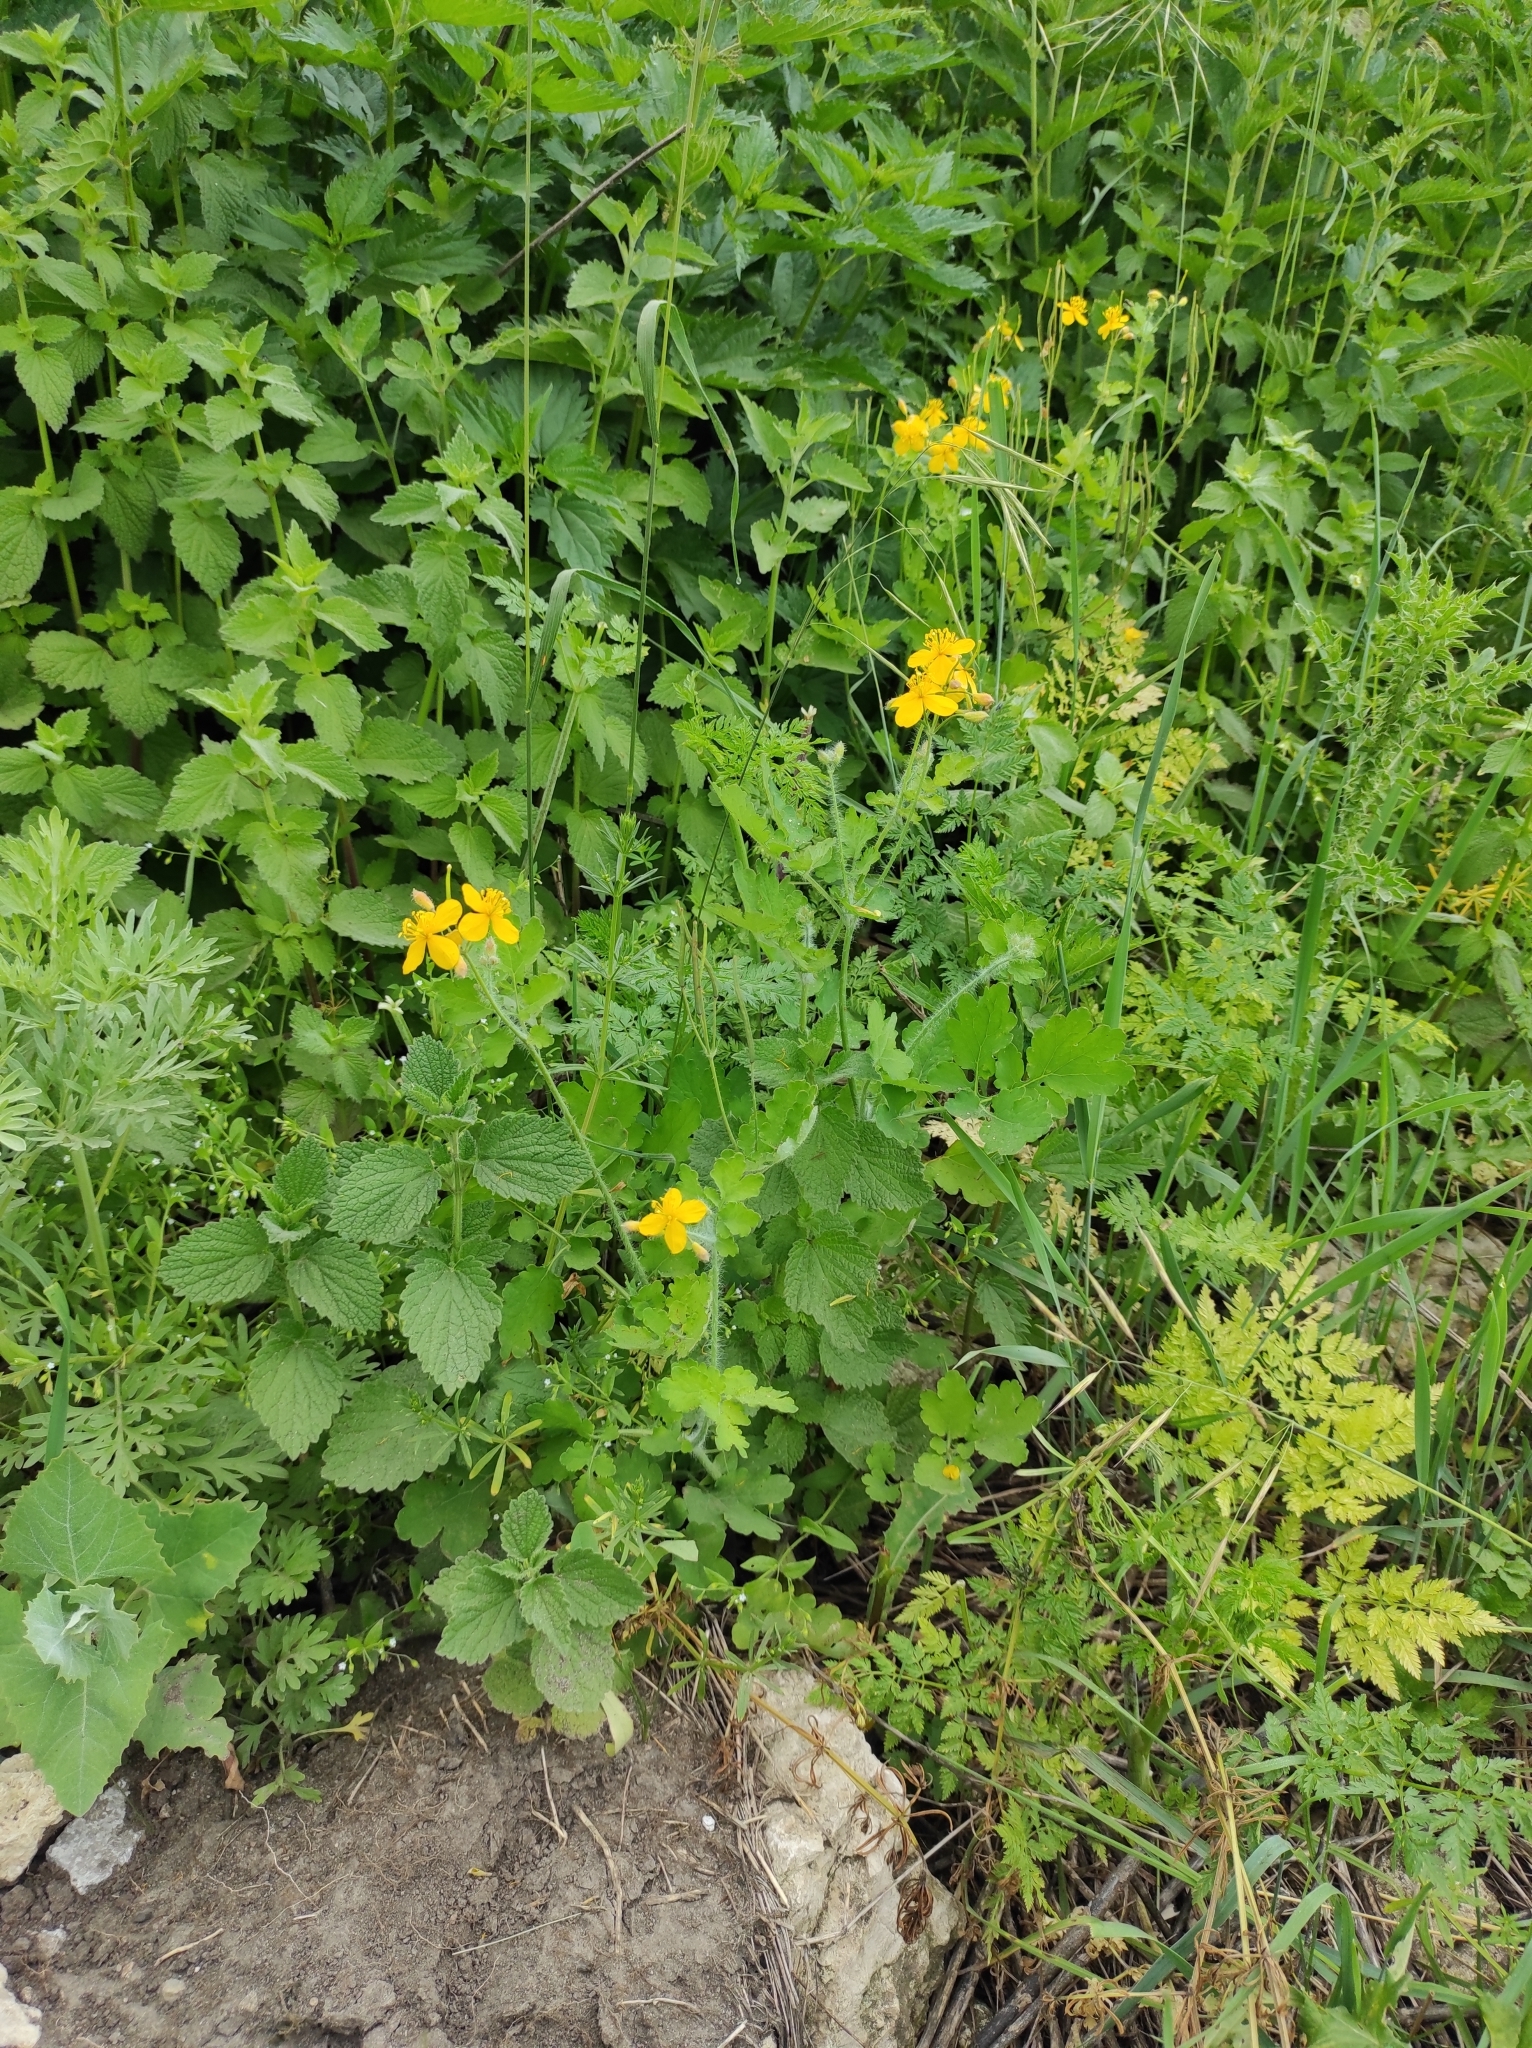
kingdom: Plantae
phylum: Tracheophyta
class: Magnoliopsida
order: Ranunculales
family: Papaveraceae
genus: Chelidonium
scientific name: Chelidonium majus
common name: Greater celandine
